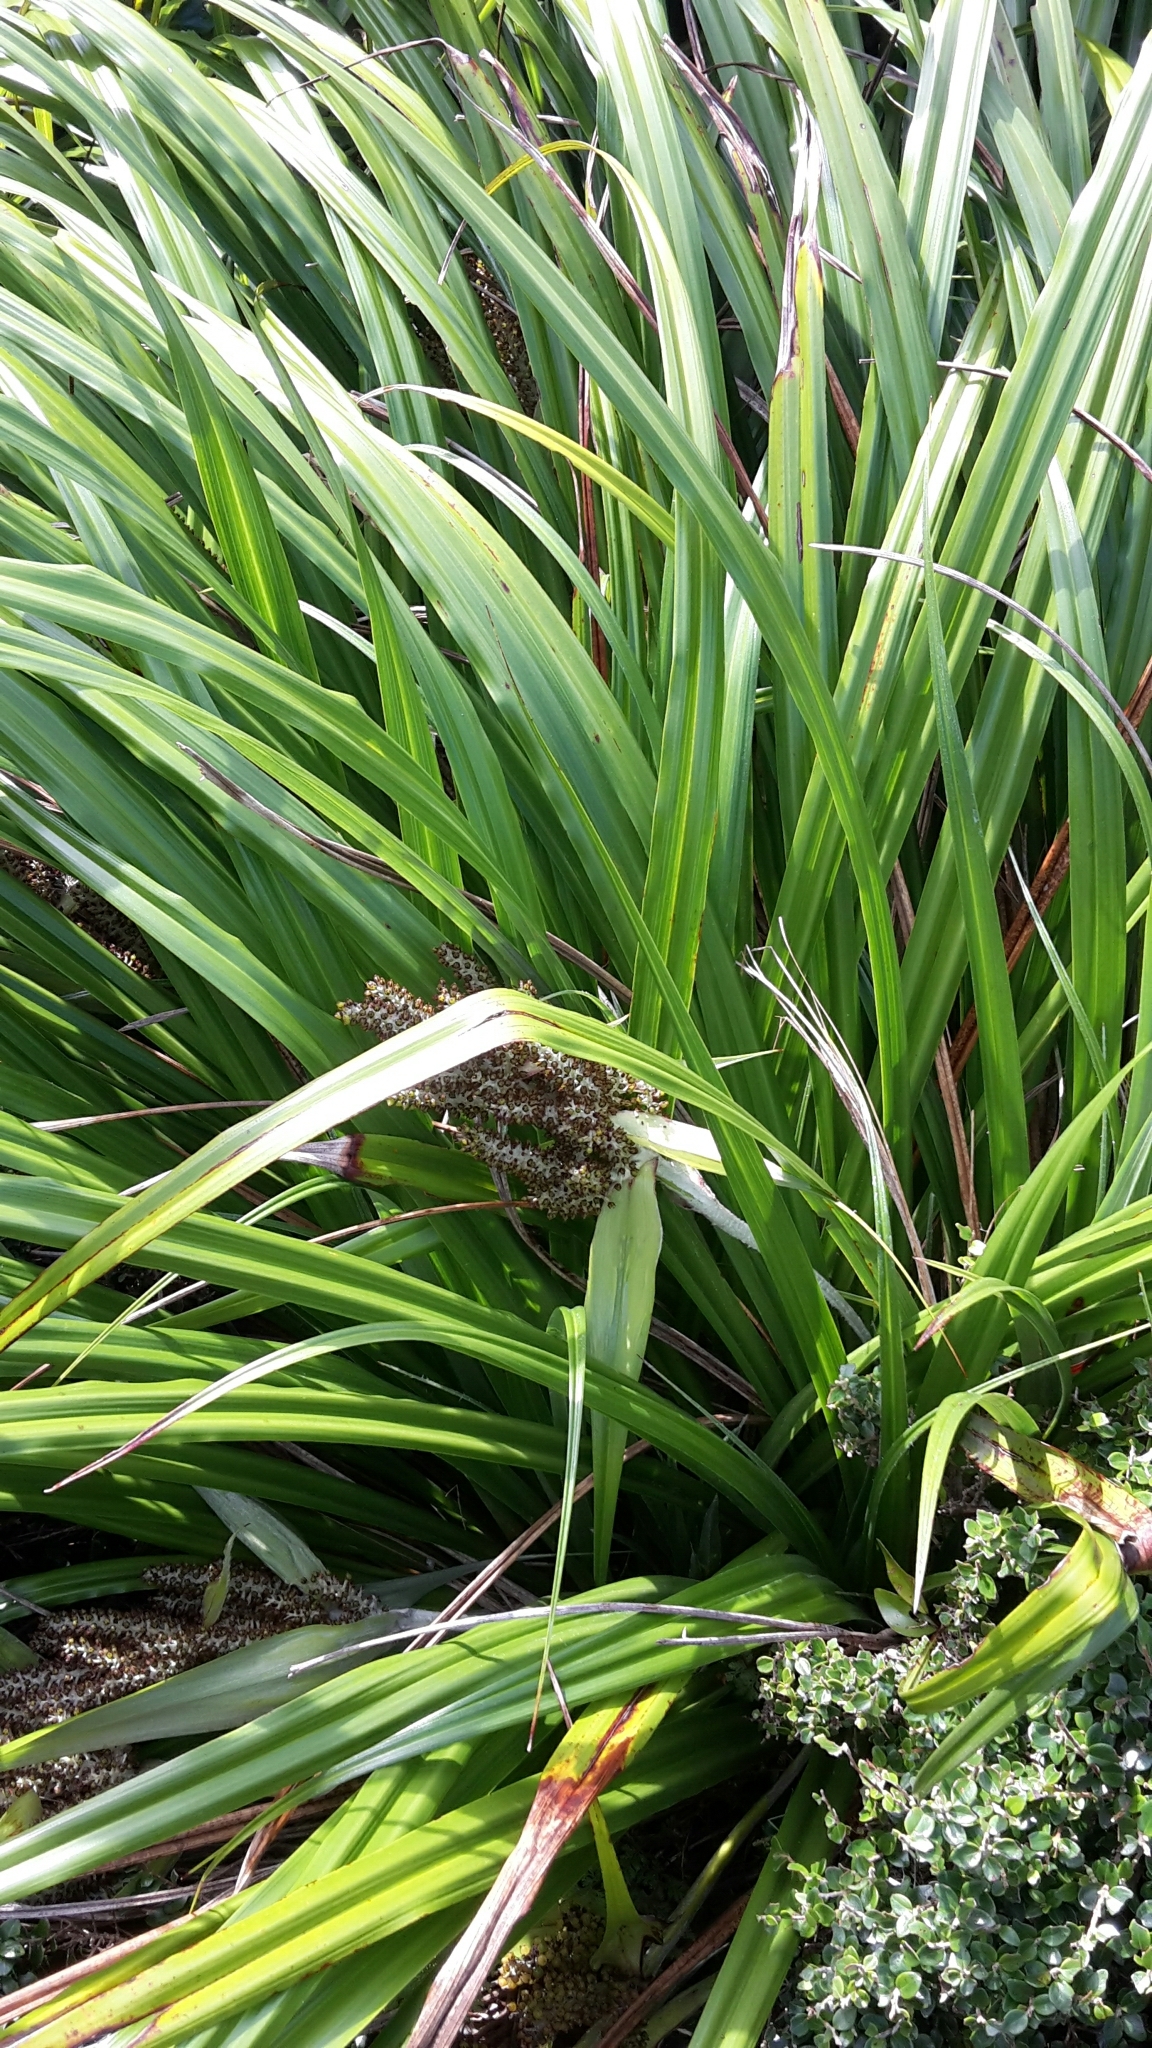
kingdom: Plantae
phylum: Tracheophyta
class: Liliopsida
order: Asparagales
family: Asteliaceae
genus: Astelia
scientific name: Astelia solandri
